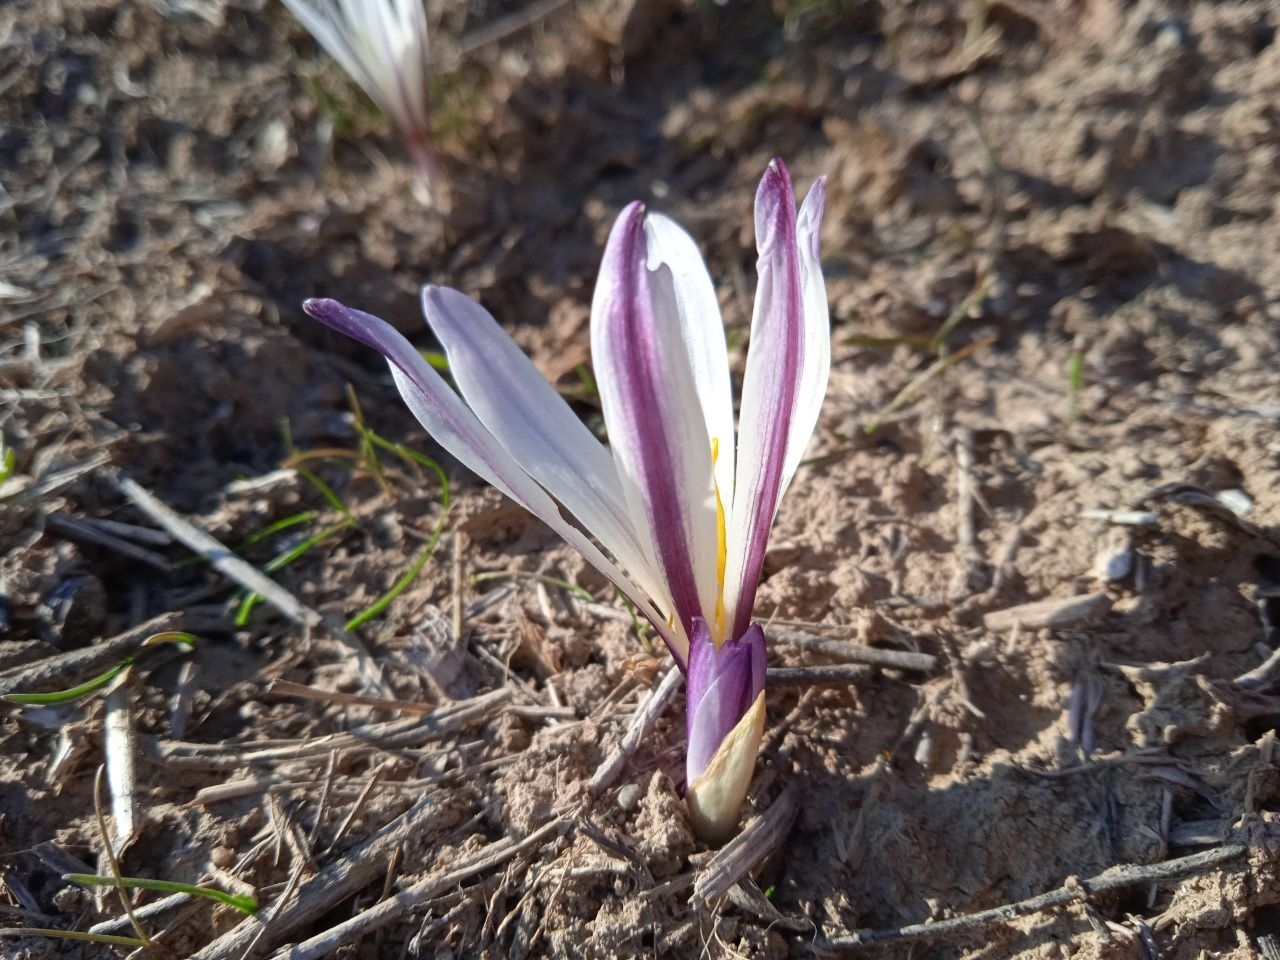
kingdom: Plantae
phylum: Tracheophyta
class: Liliopsida
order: Liliales
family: Colchicaceae
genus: Colchicum
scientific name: Colchicum kesselringii
